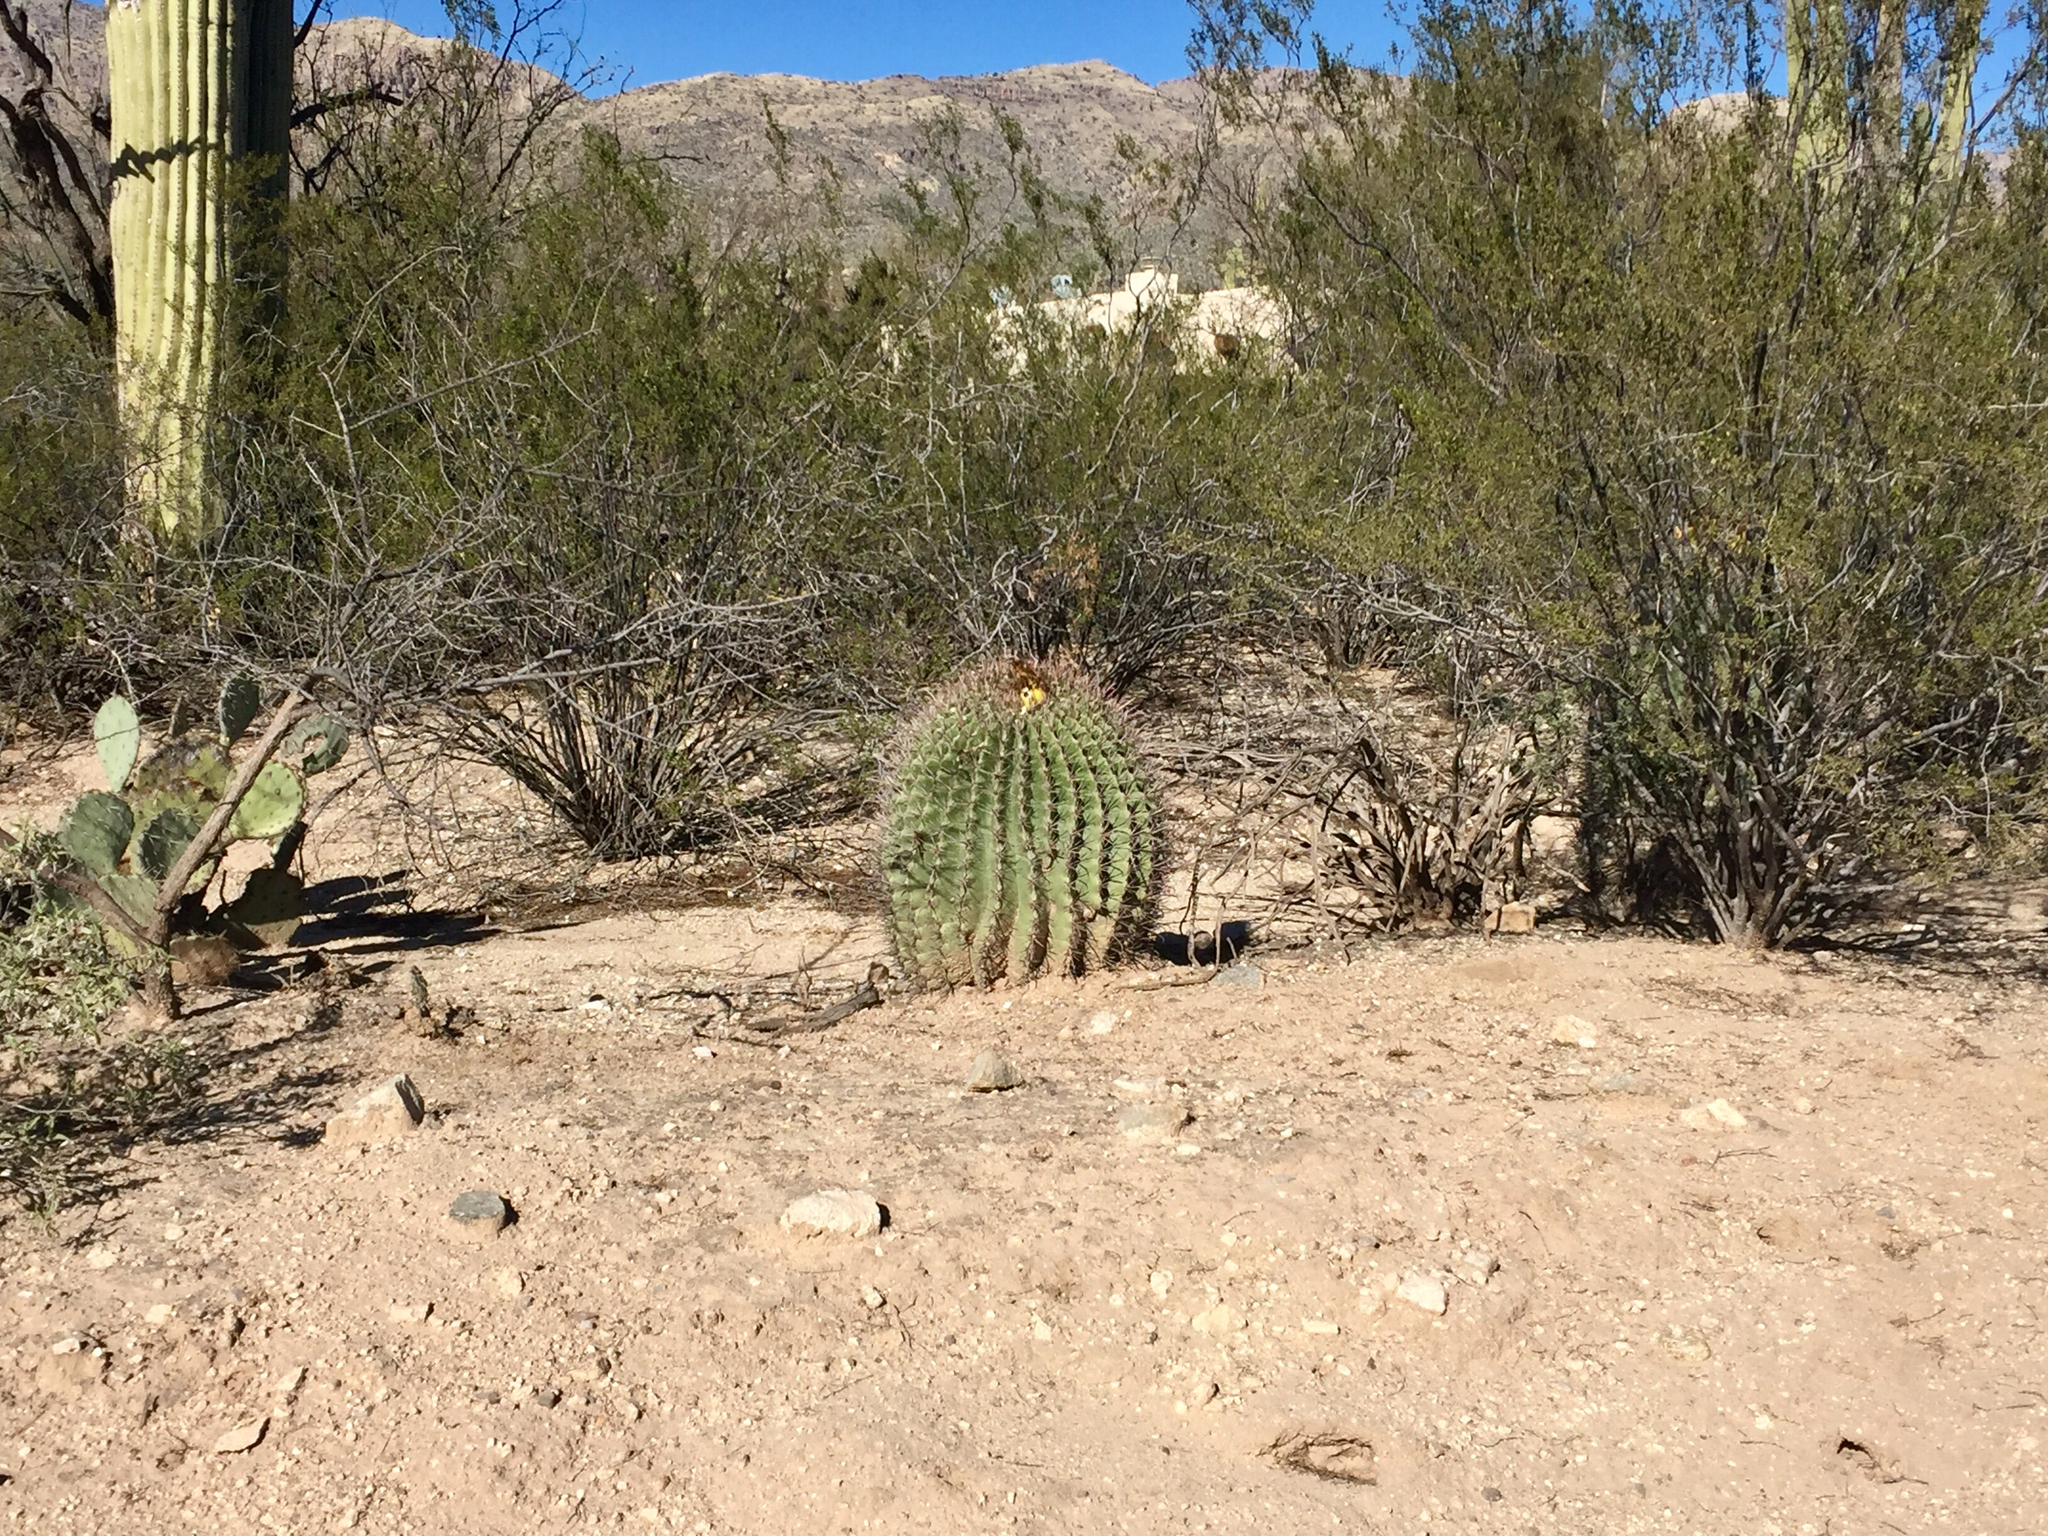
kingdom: Plantae
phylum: Tracheophyta
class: Magnoliopsida
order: Caryophyllales
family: Cactaceae
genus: Ferocactus
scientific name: Ferocactus wislizeni
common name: Candy barrel cactus
